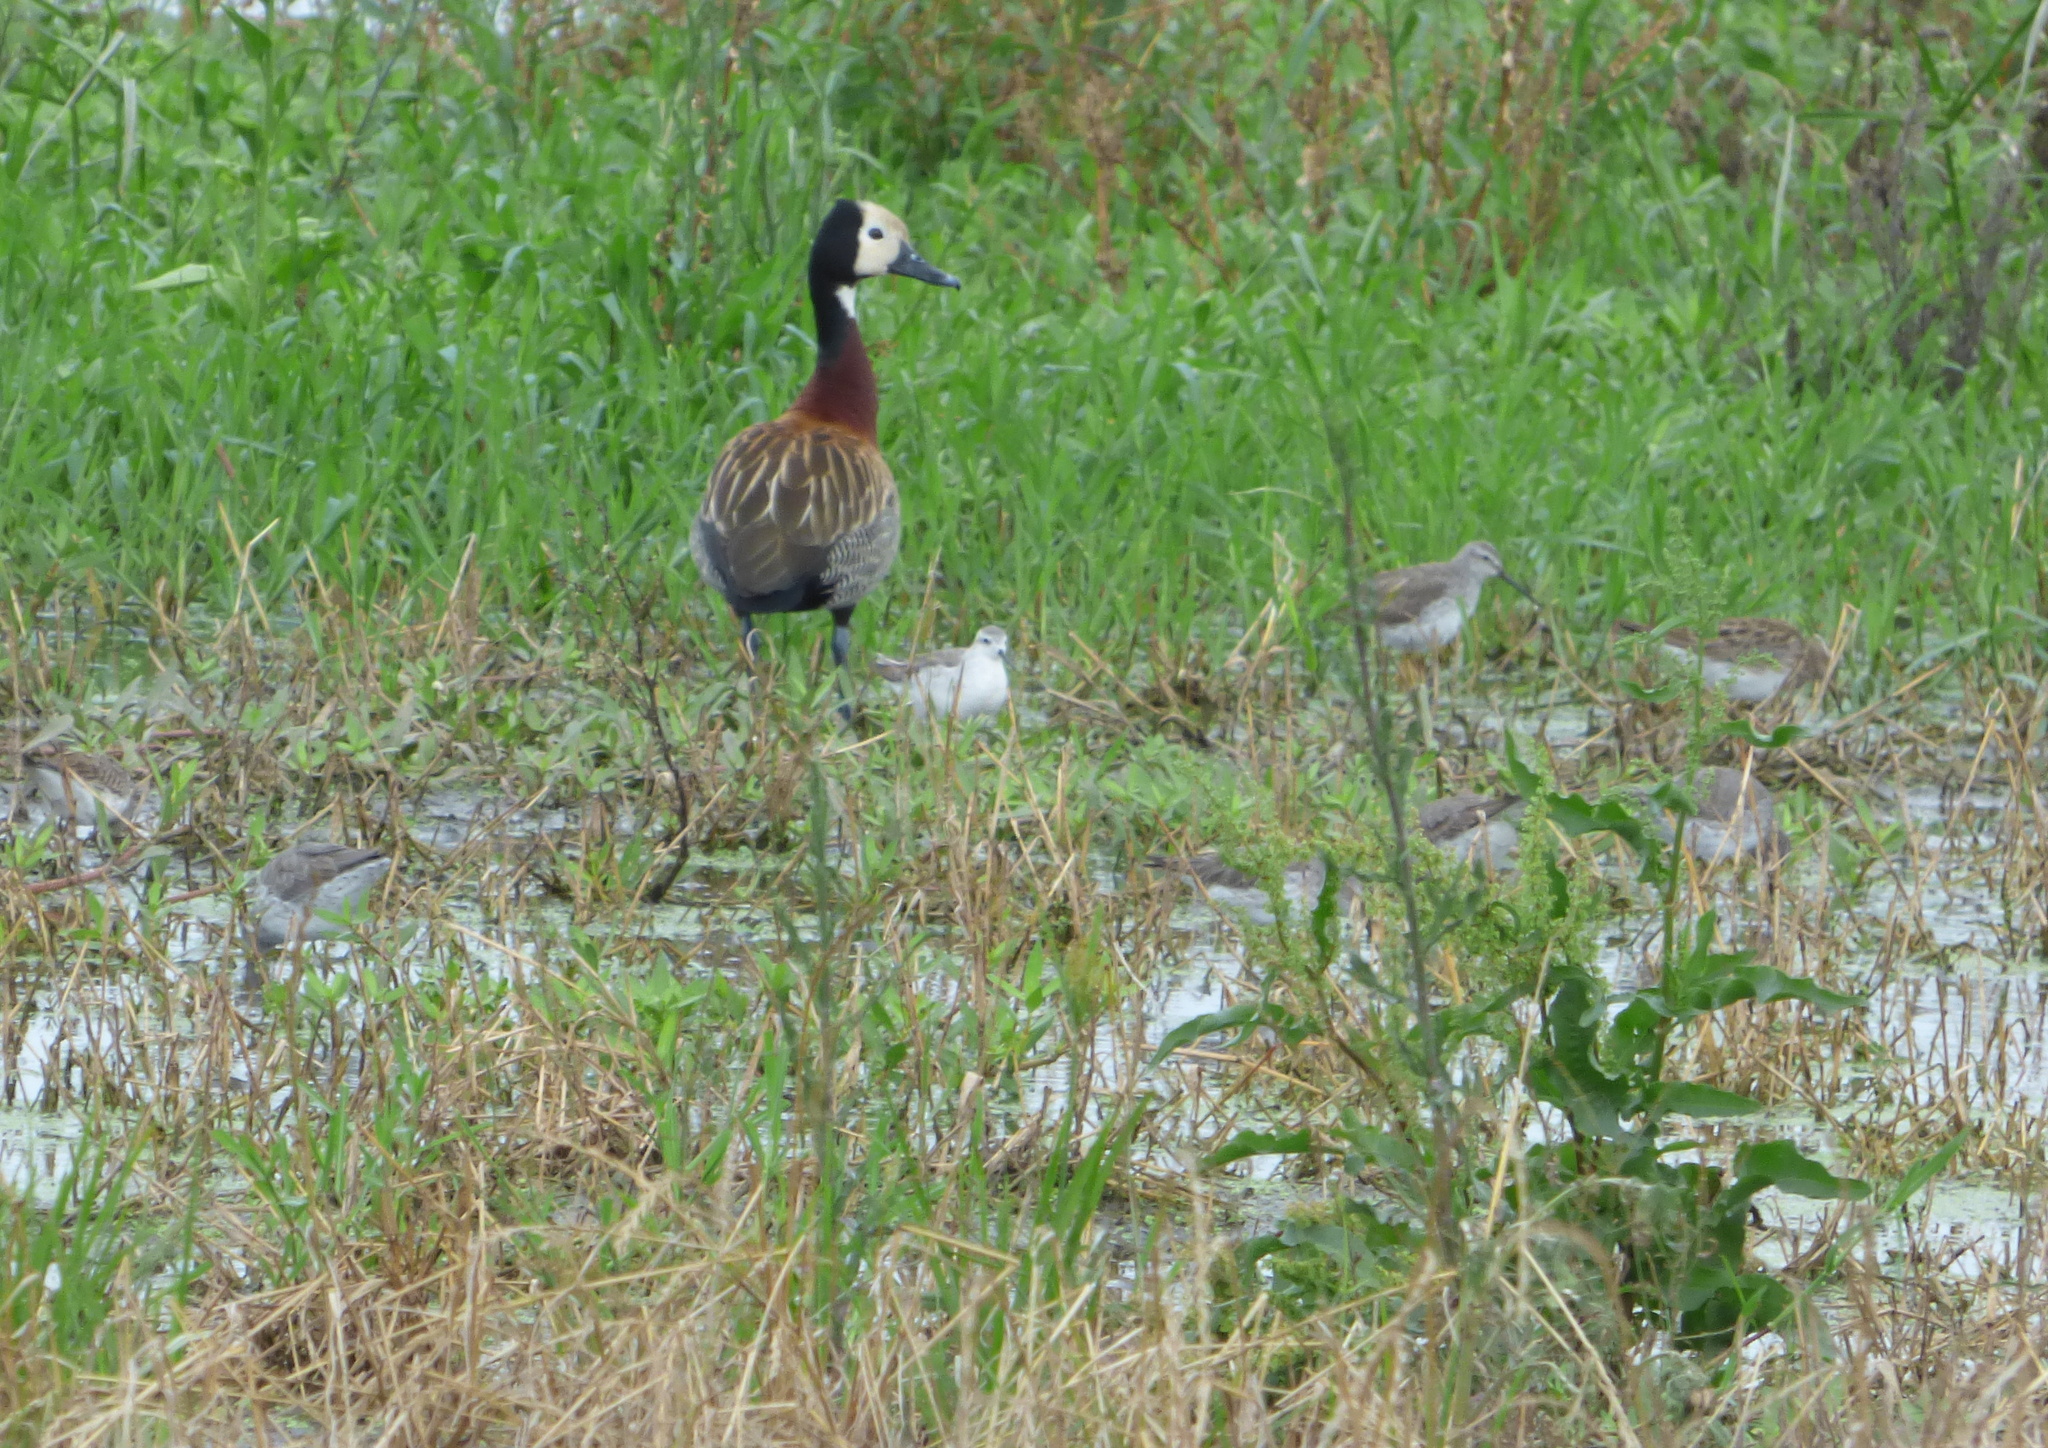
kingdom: Animalia
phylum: Chordata
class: Aves
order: Anseriformes
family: Anatidae
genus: Dendrocygna
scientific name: Dendrocygna viduata
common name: White-faced whistling duck
